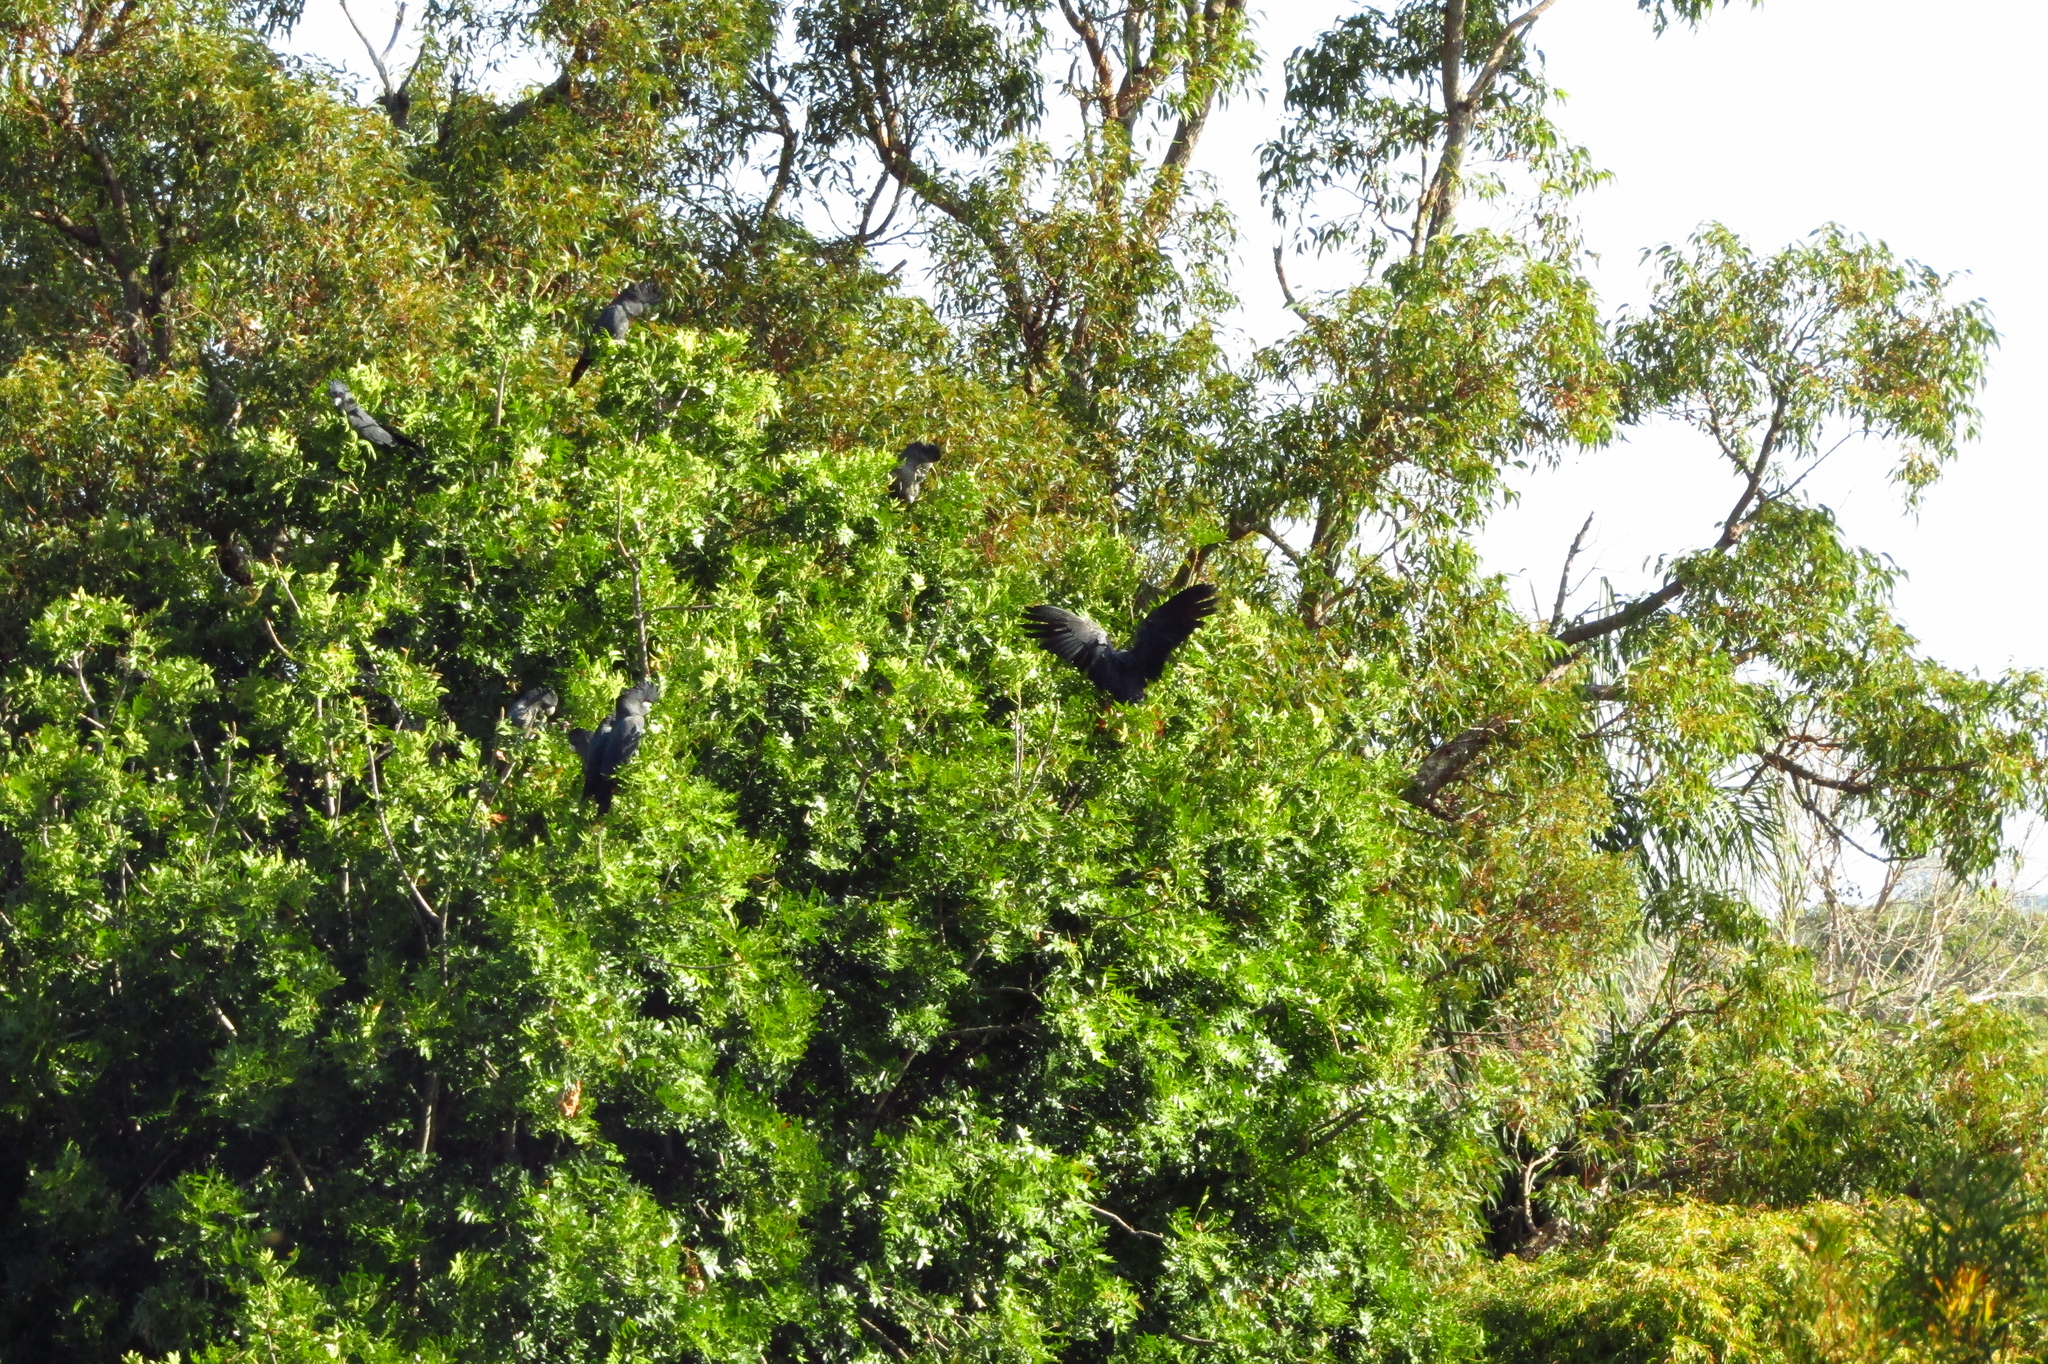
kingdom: Animalia
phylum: Chordata
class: Aves
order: Psittaciformes
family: Psittacidae
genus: Calyptorhynchus
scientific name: Calyptorhynchus banksii
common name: Red-tailed black cockatoo
